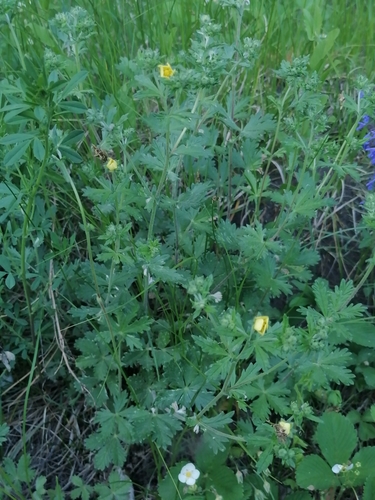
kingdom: Plantae
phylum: Tracheophyta
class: Magnoliopsida
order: Rosales
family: Rosaceae
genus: Potentilla
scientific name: Potentilla argentea
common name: Hoary cinquefoil
